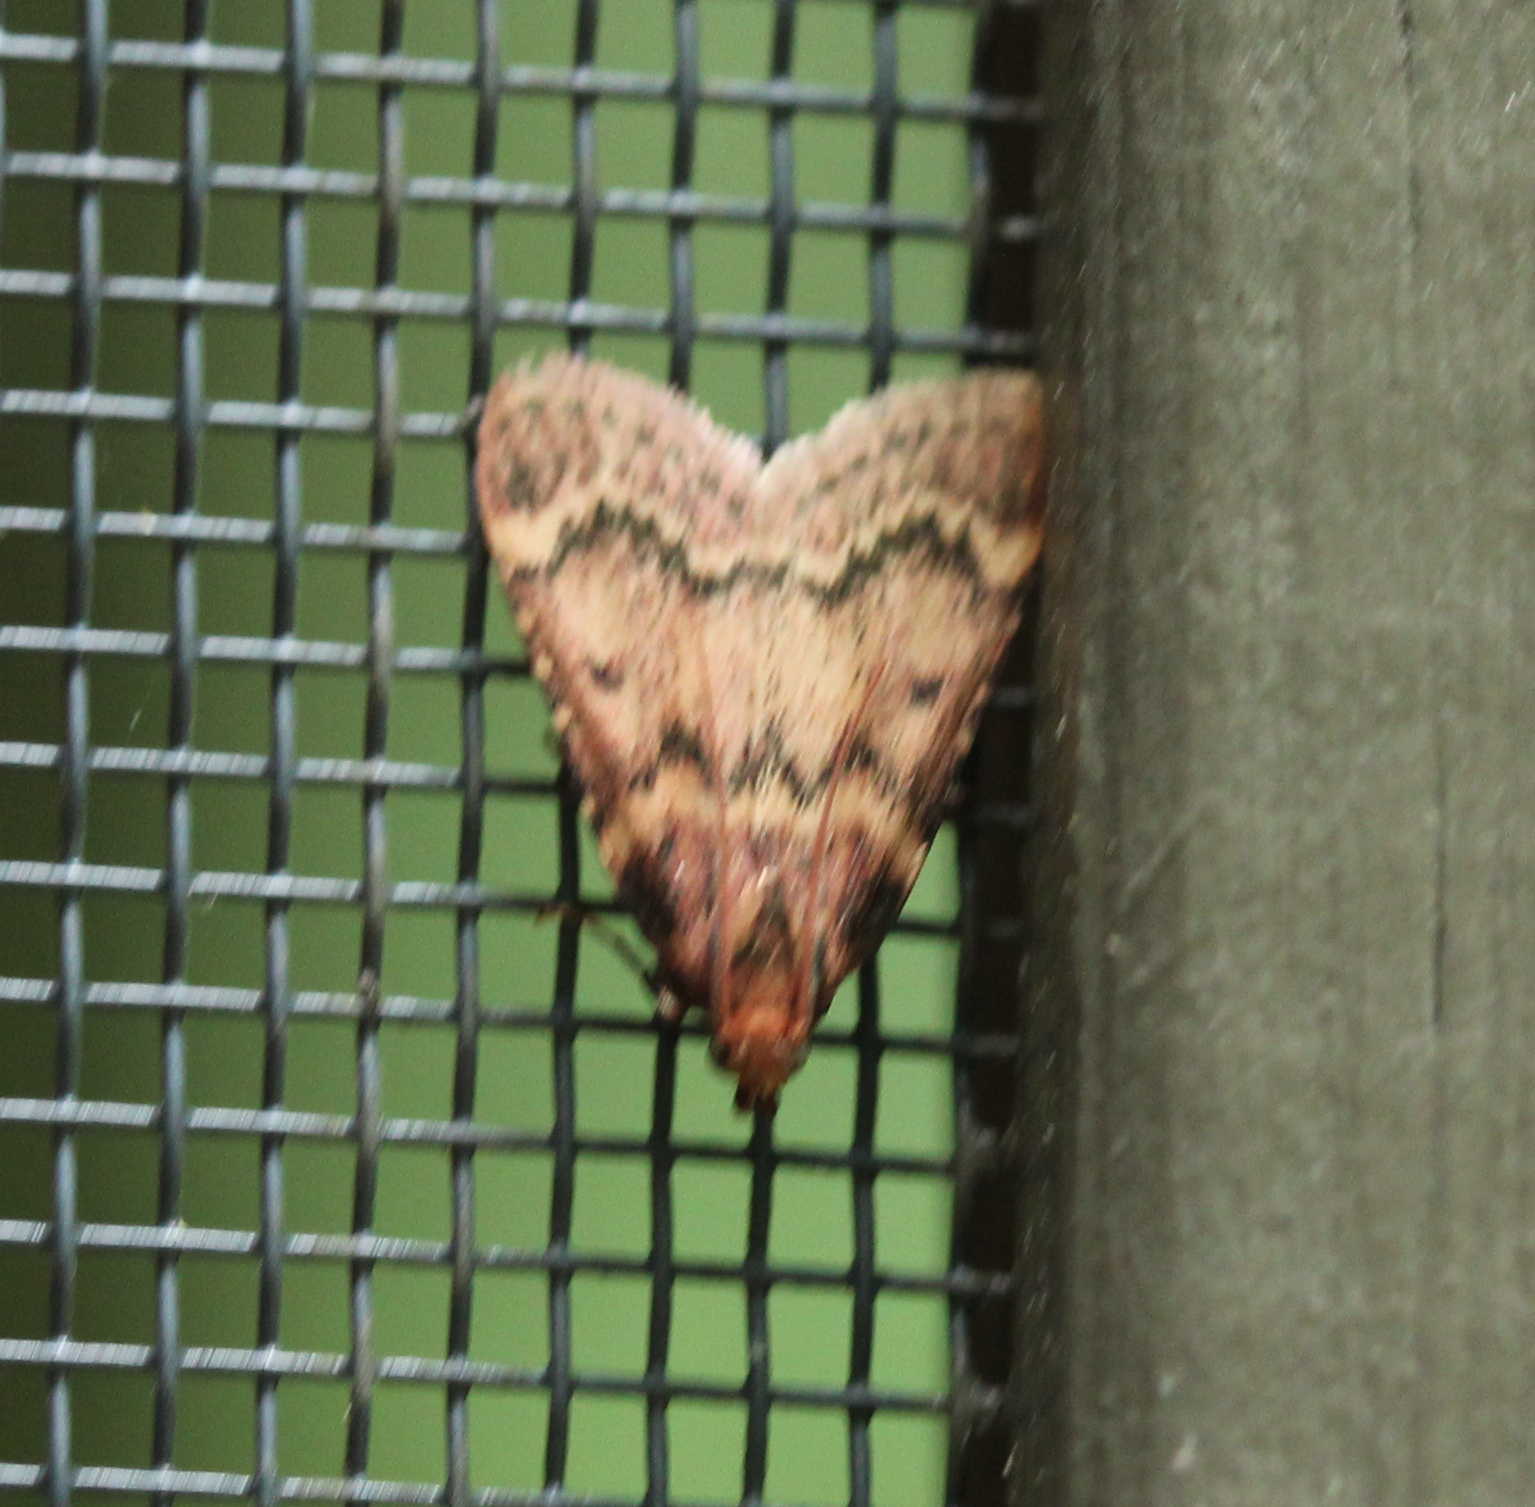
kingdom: Animalia
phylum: Arthropoda
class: Insecta
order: Lepidoptera
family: Pyralidae
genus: Aglossa
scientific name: Aglossa disciferalis
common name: Pink-masked pyralid moth
